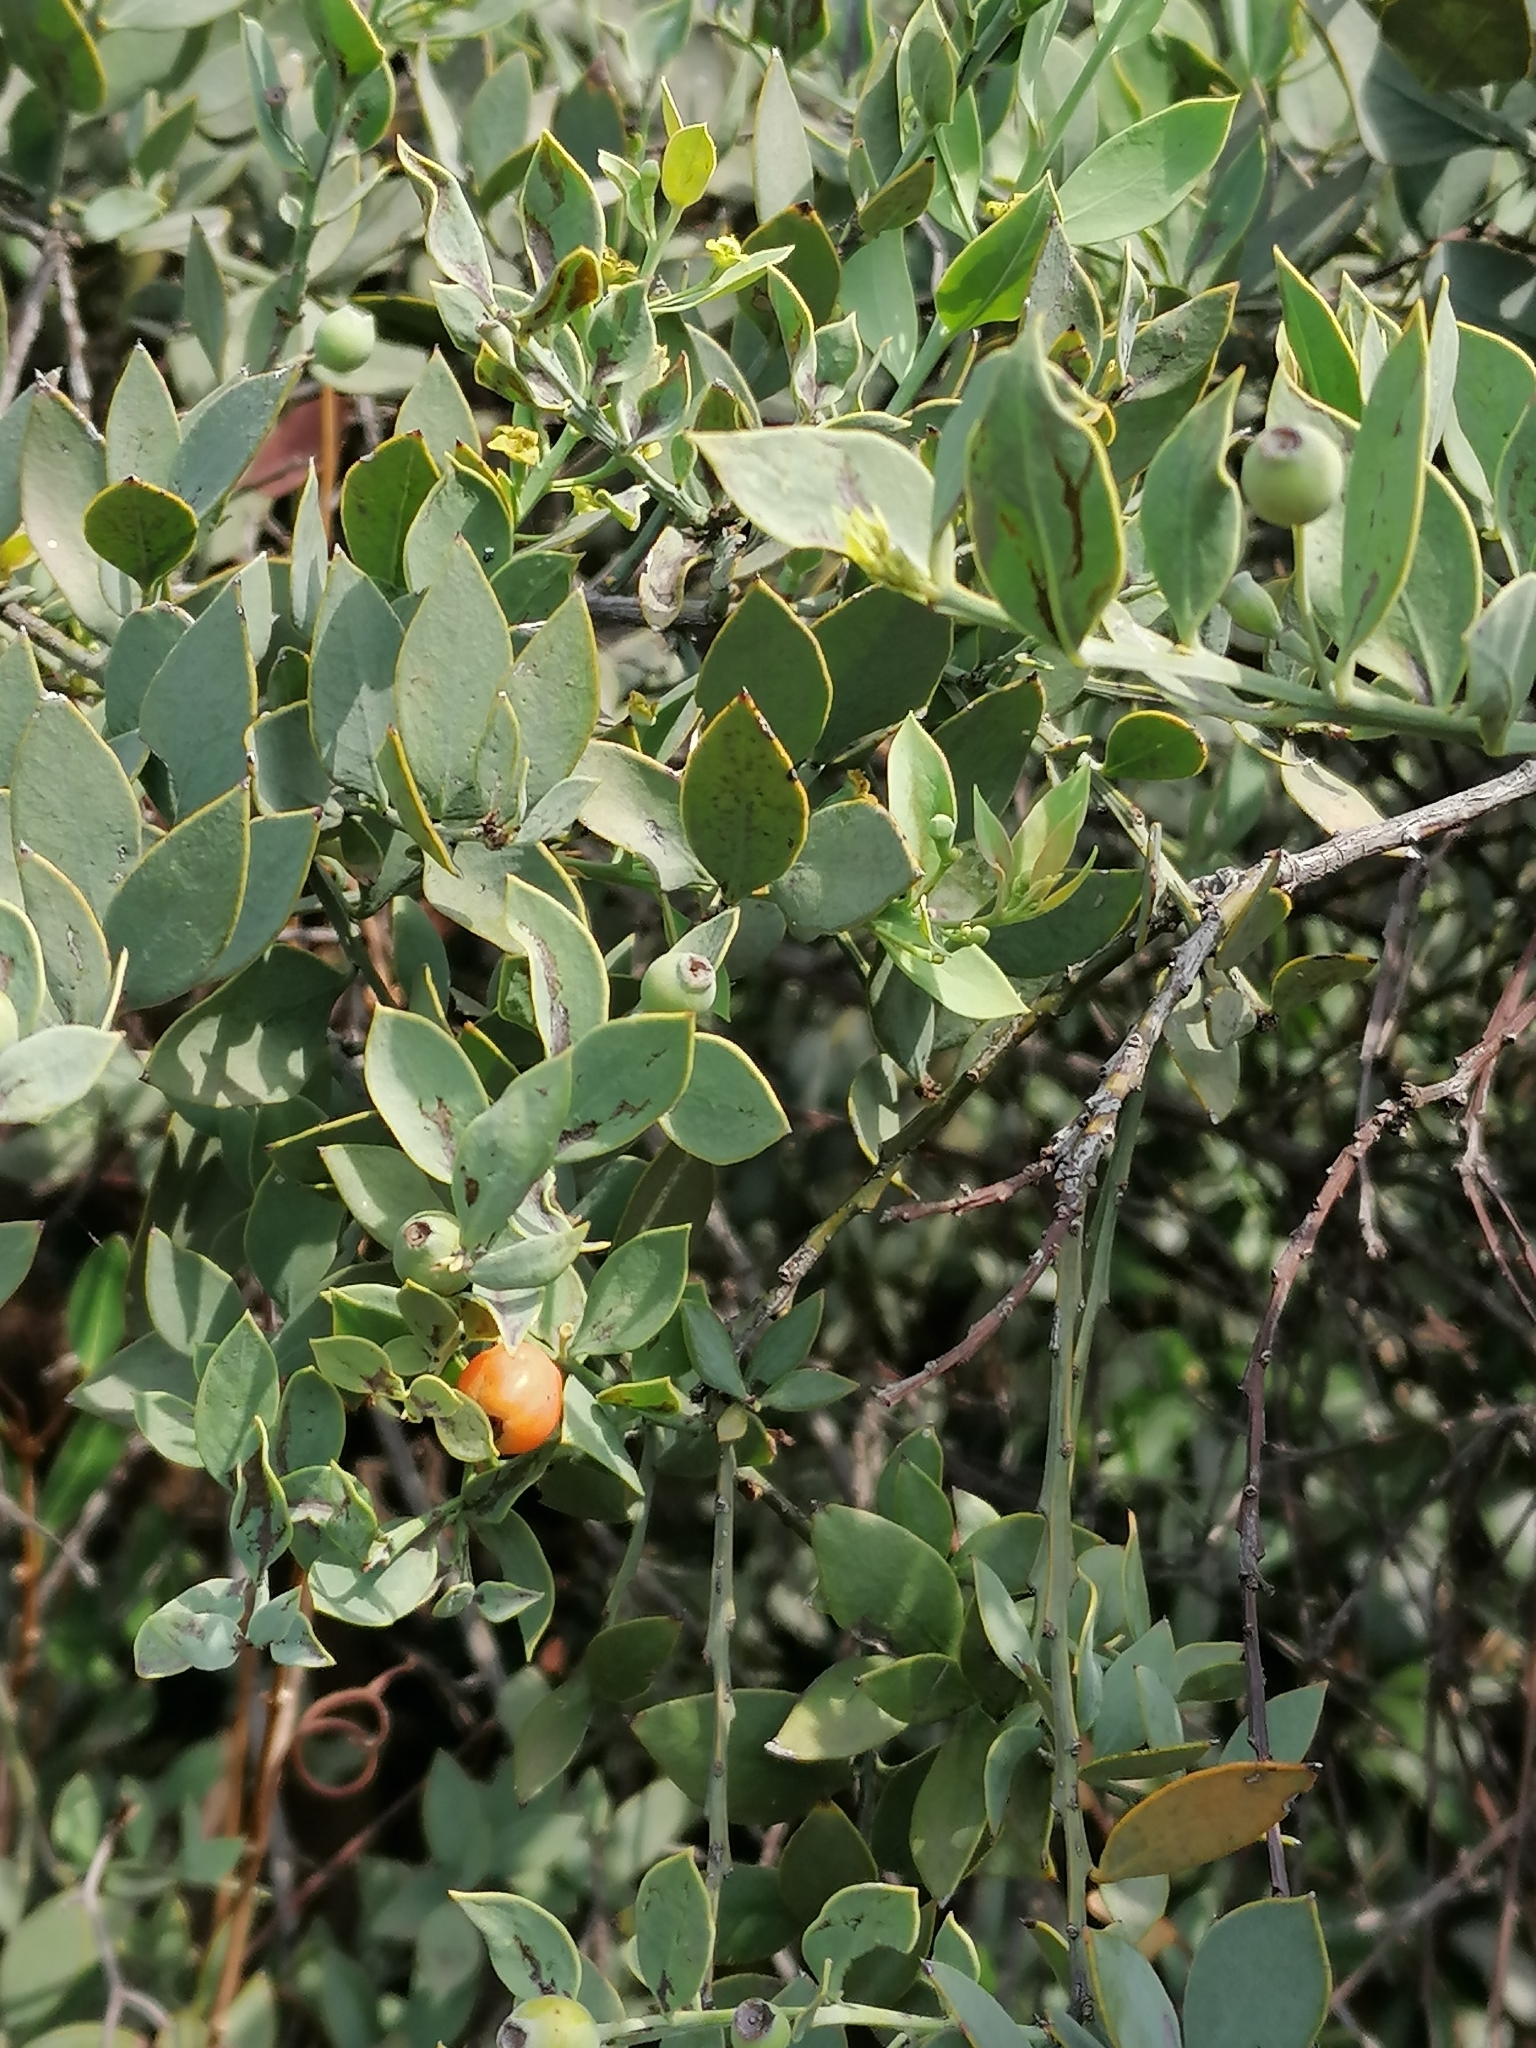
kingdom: Plantae
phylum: Tracheophyta
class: Magnoliopsida
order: Santalales
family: Santalaceae
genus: Osyris
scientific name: Osyris lanceolata
